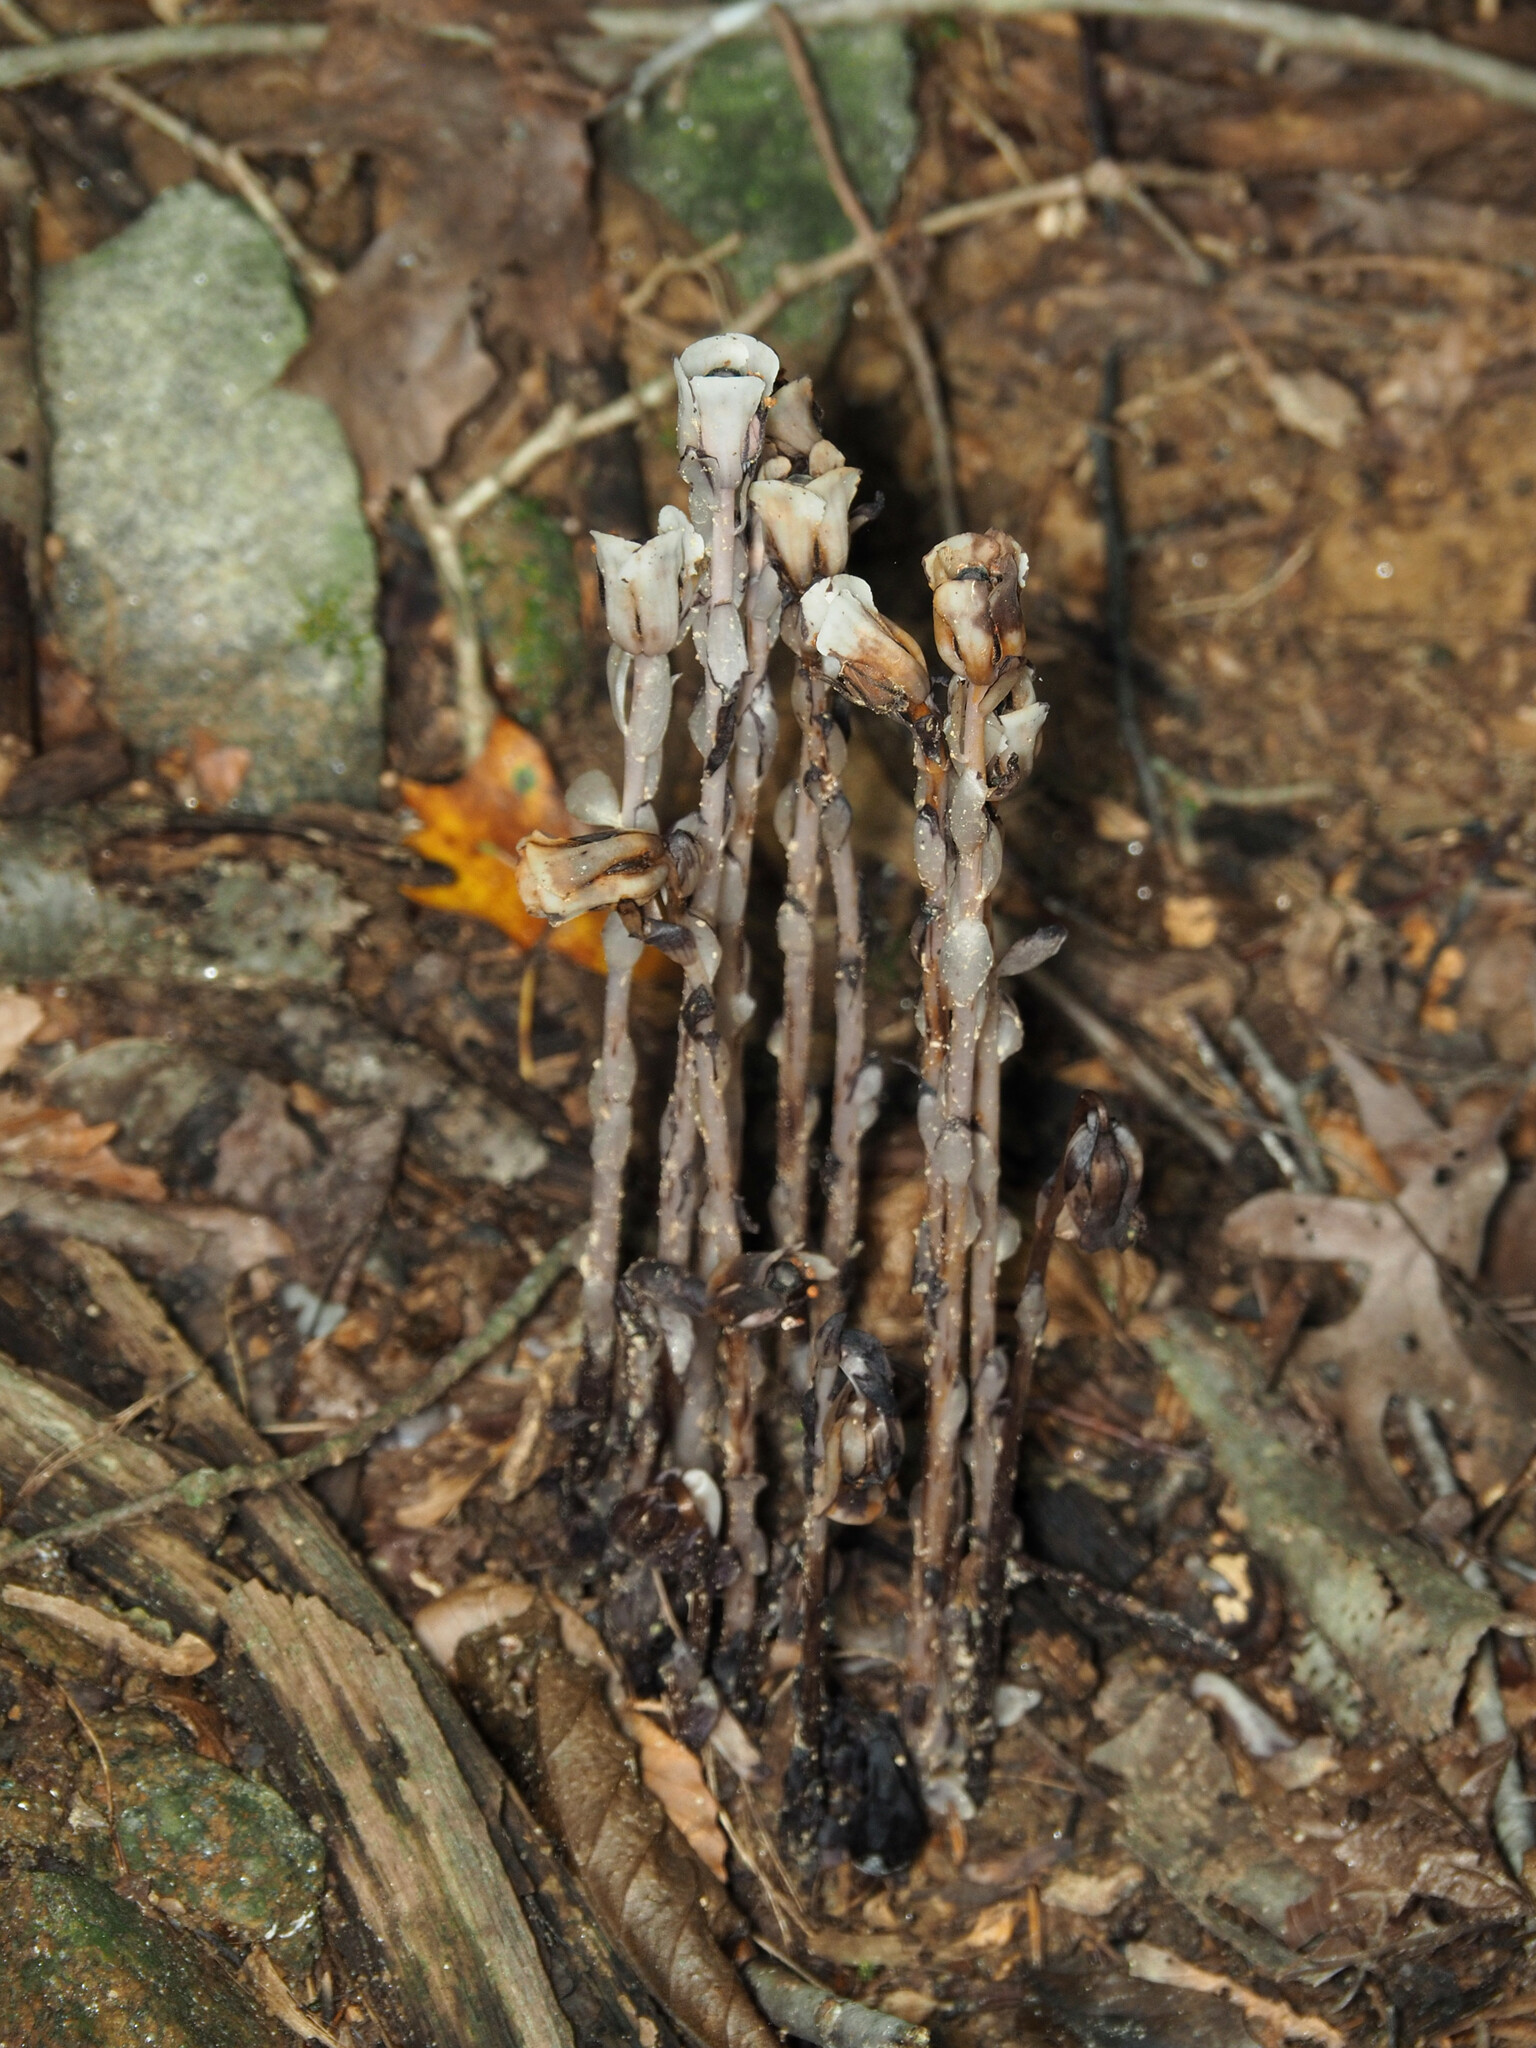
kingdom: Plantae
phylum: Tracheophyta
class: Magnoliopsida
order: Ericales
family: Ericaceae
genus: Monotropa
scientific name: Monotropa uniflora
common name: Convulsion root
